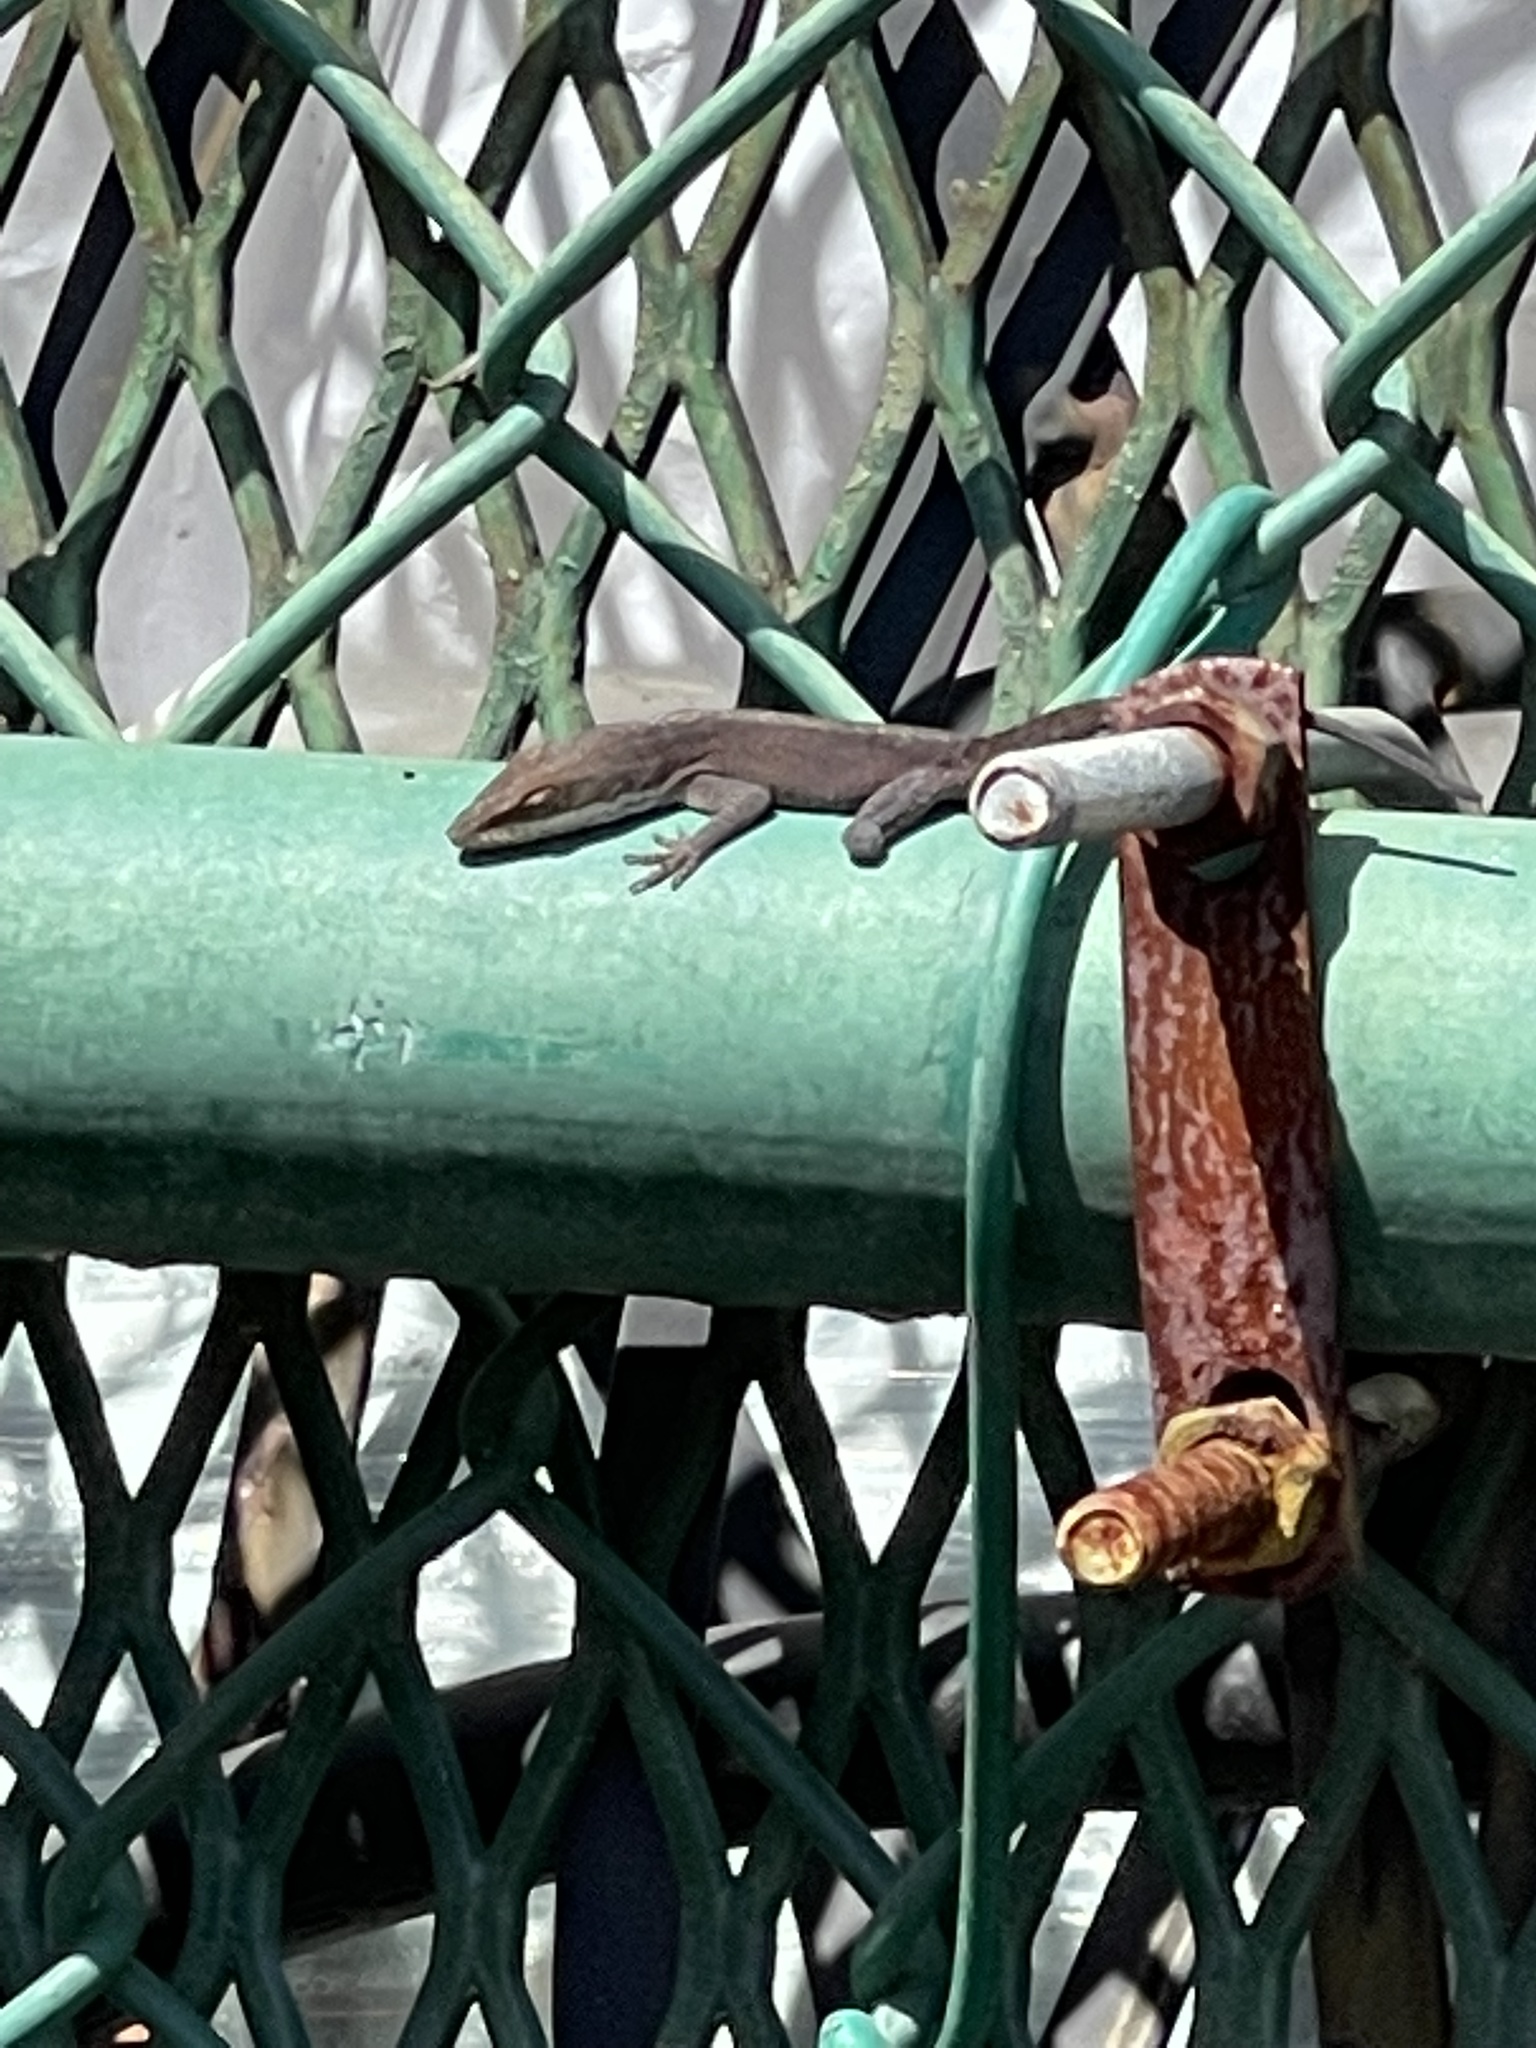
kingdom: Animalia
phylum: Chordata
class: Squamata
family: Dactyloidae
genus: Anolis
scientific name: Anolis carolinensis
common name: Green anole
